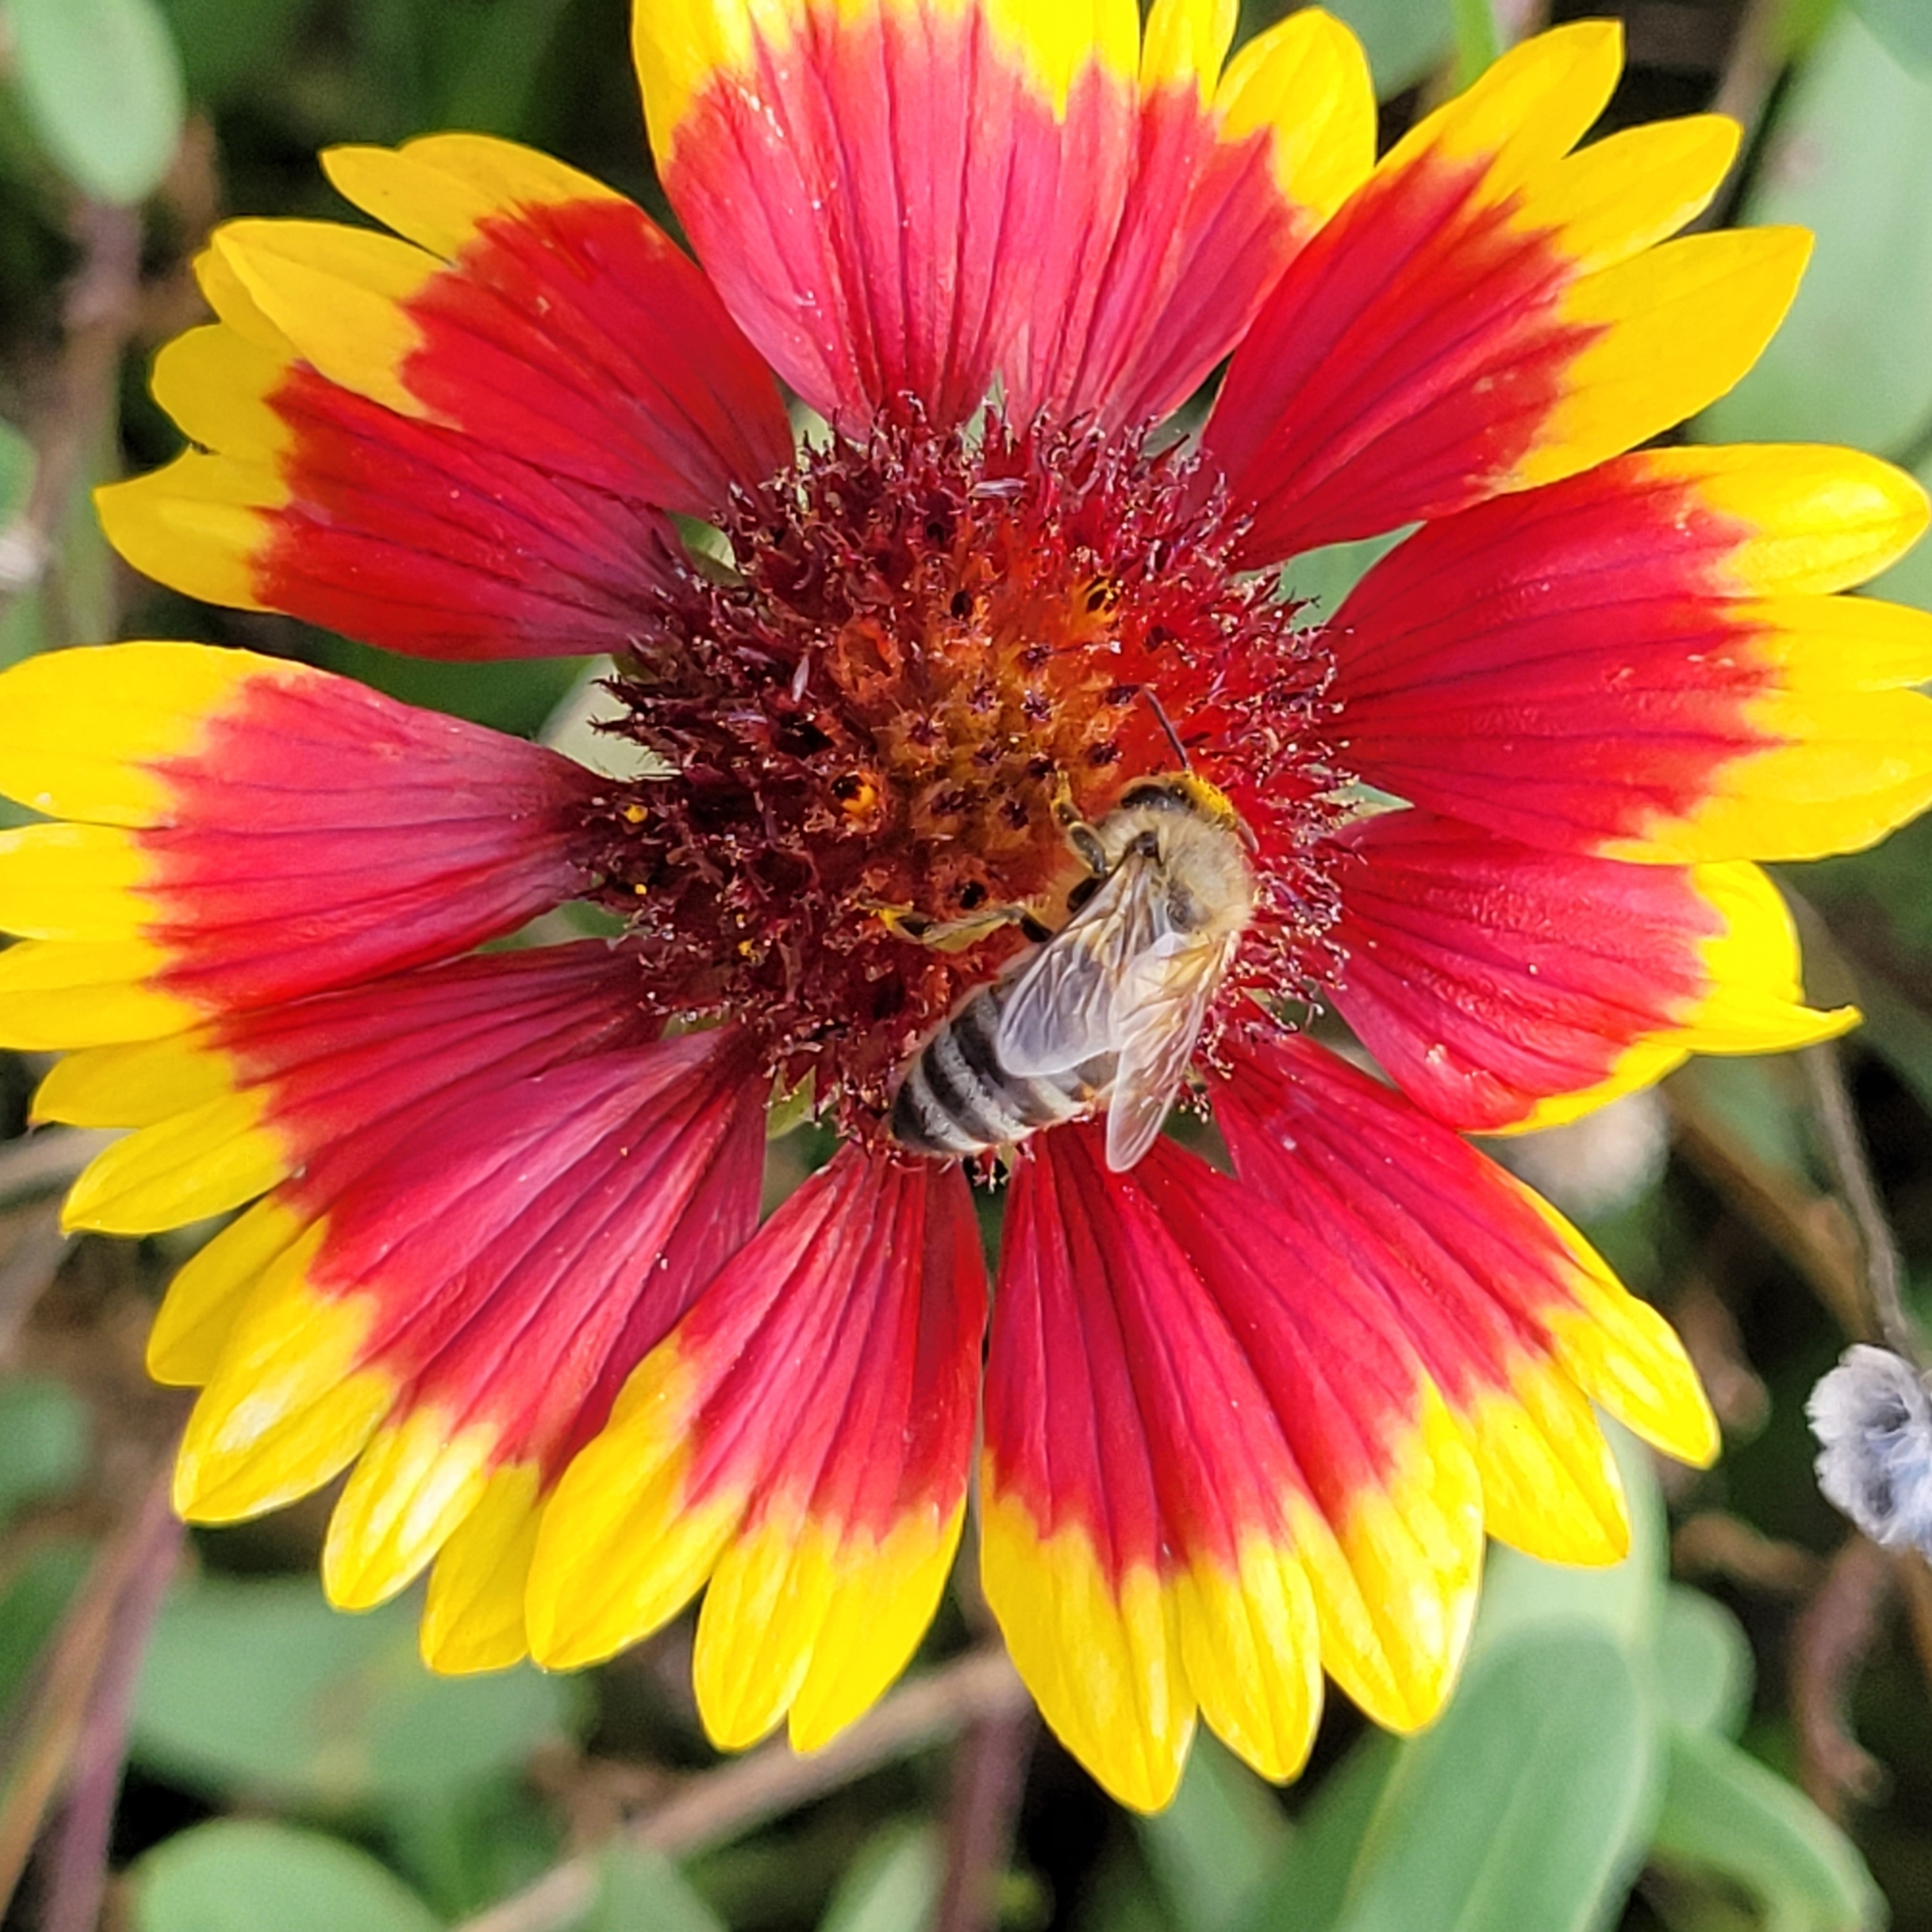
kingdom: Animalia
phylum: Arthropoda
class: Insecta
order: Hymenoptera
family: Apidae
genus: Apis
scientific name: Apis mellifera
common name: Honey bee
